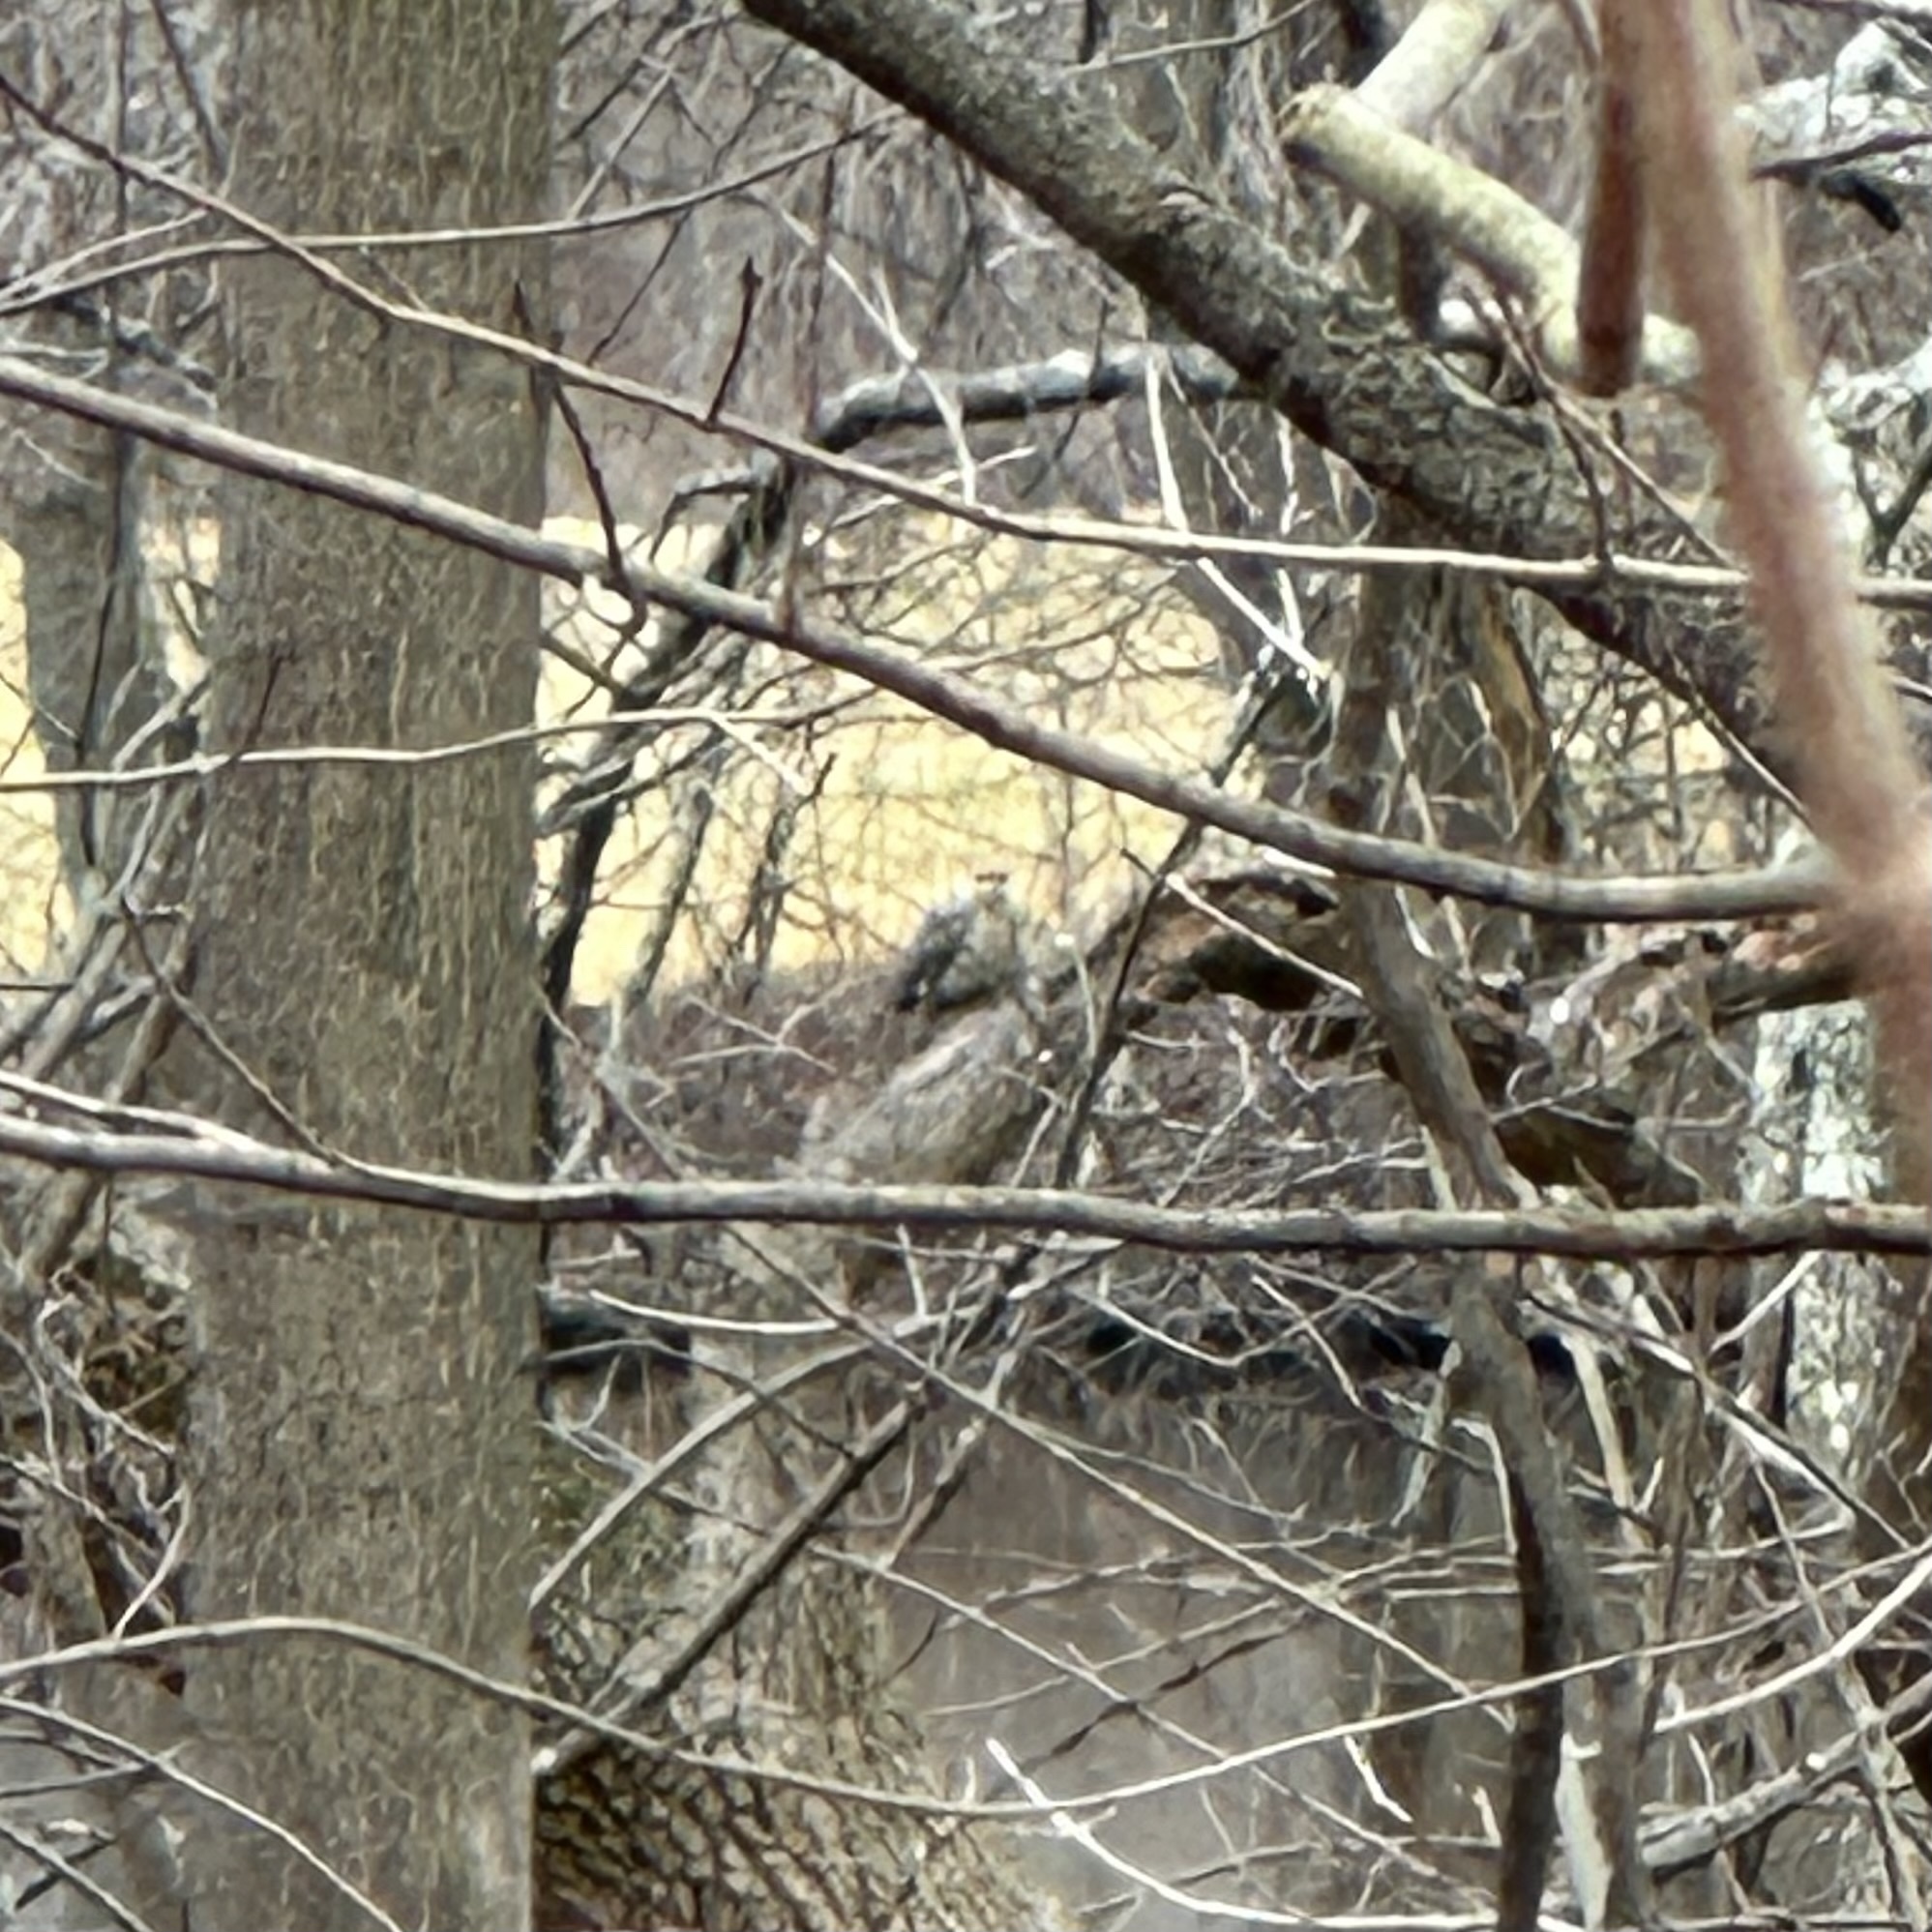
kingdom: Animalia
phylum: Chordata
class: Aves
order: Piciformes
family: Picidae
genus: Melanerpes
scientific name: Melanerpes carolinus
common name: Red-bellied woodpecker
